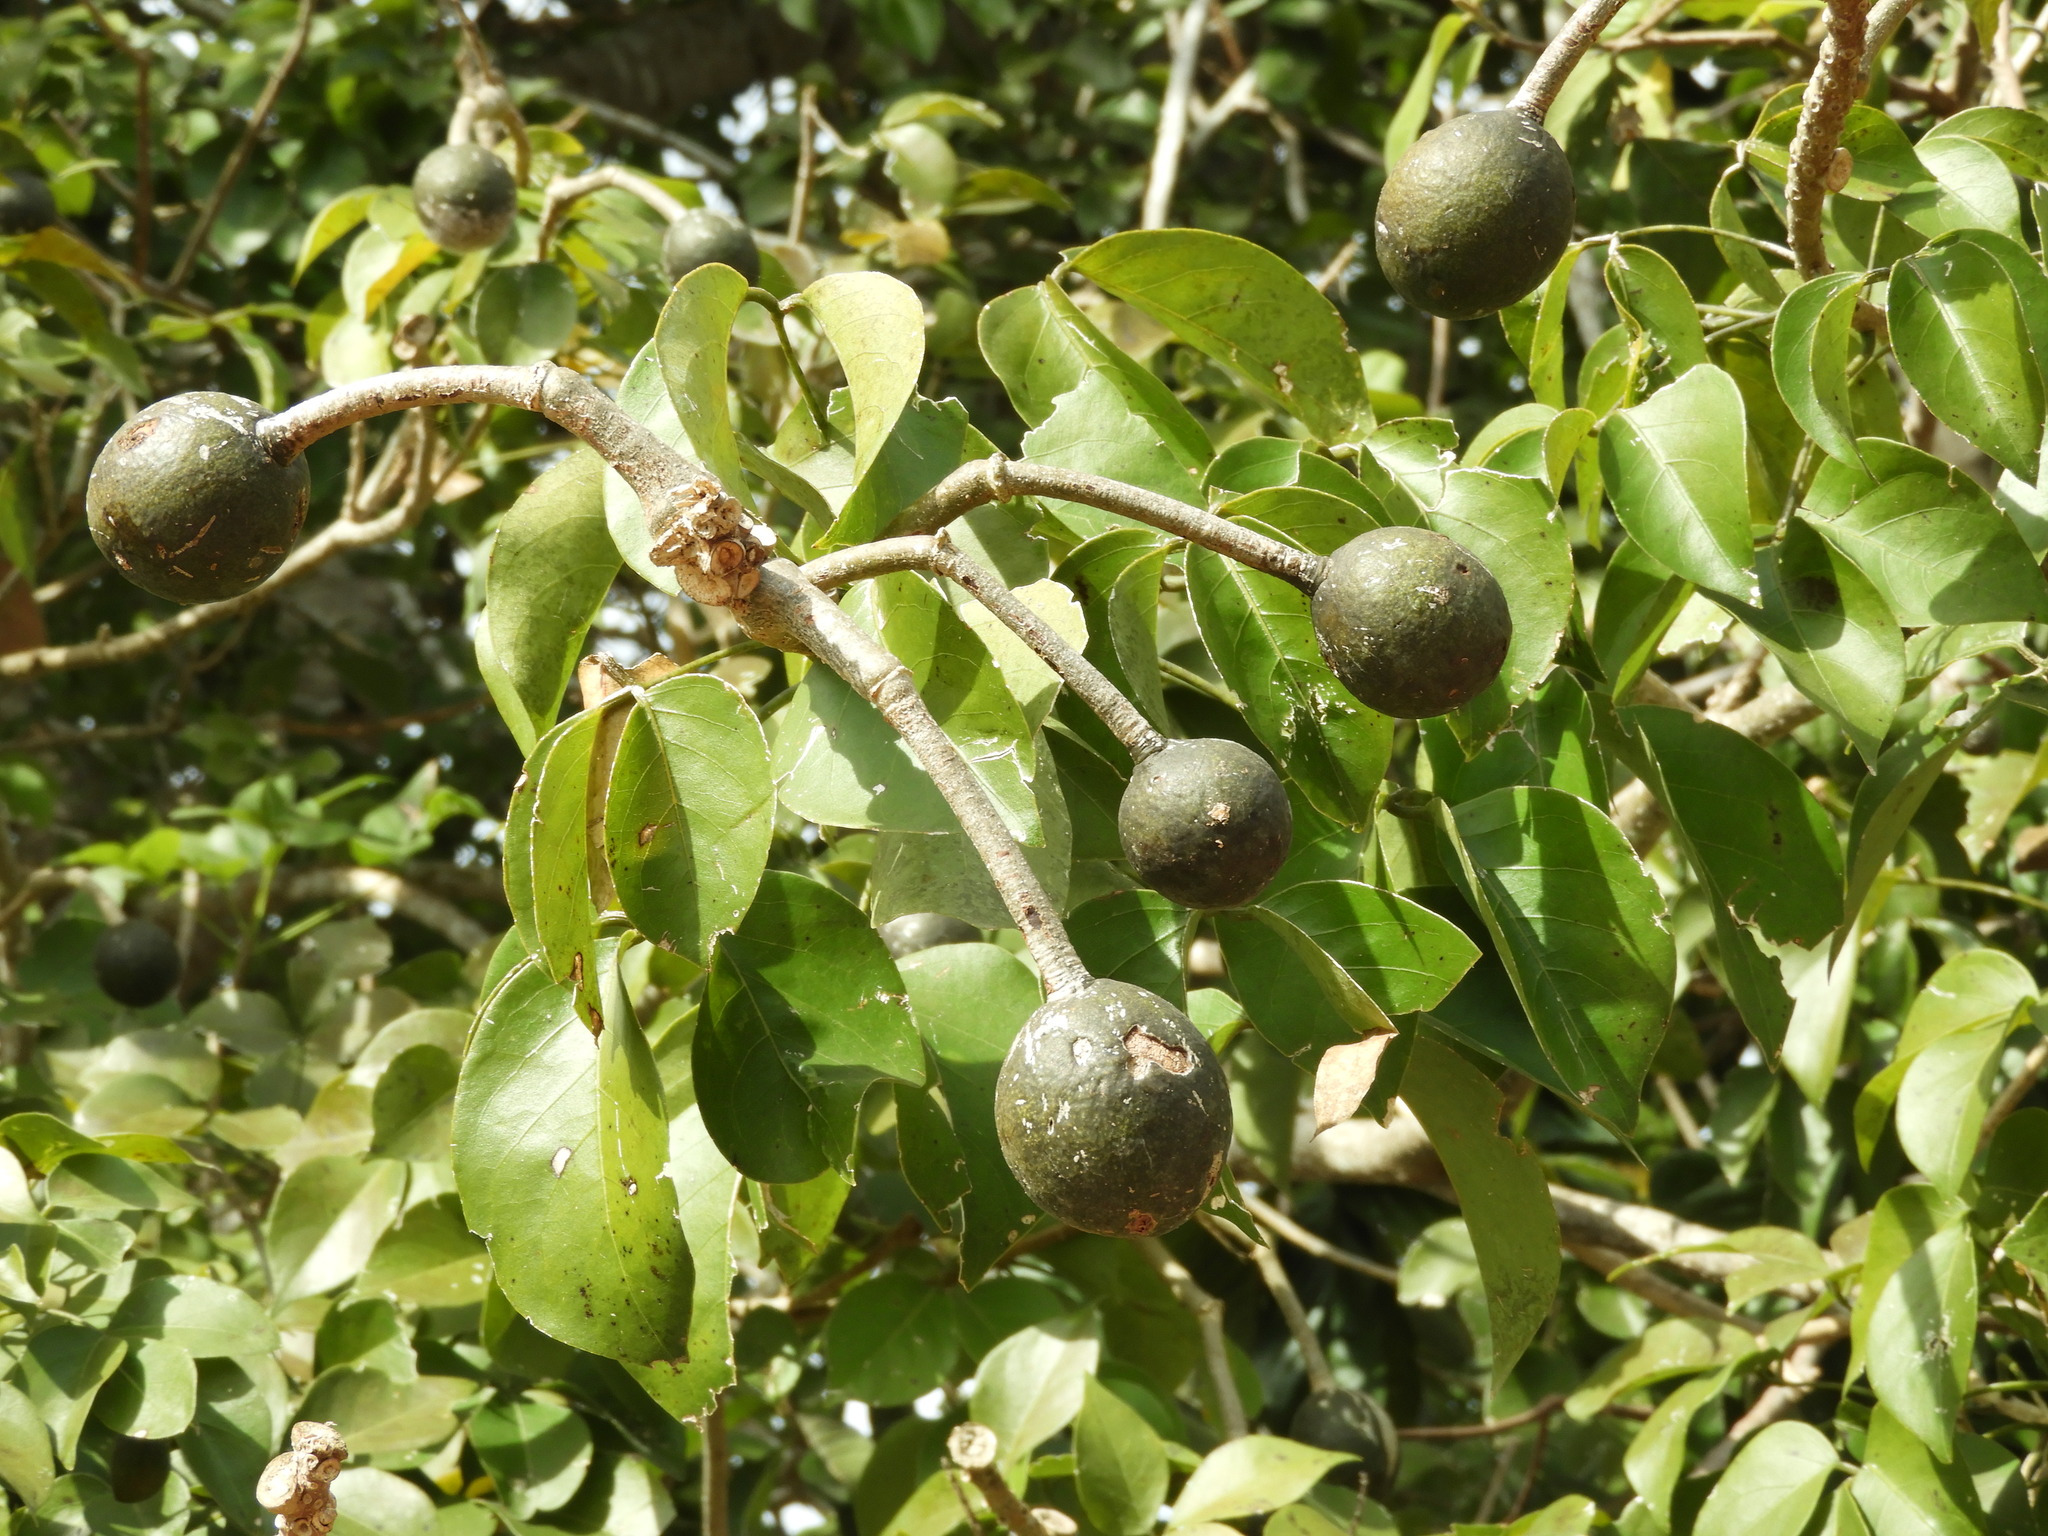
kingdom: Plantae
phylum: Tracheophyta
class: Magnoliopsida
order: Brassicales
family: Capparaceae
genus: Crateva
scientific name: Crateva tapia
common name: Garlic-pear
